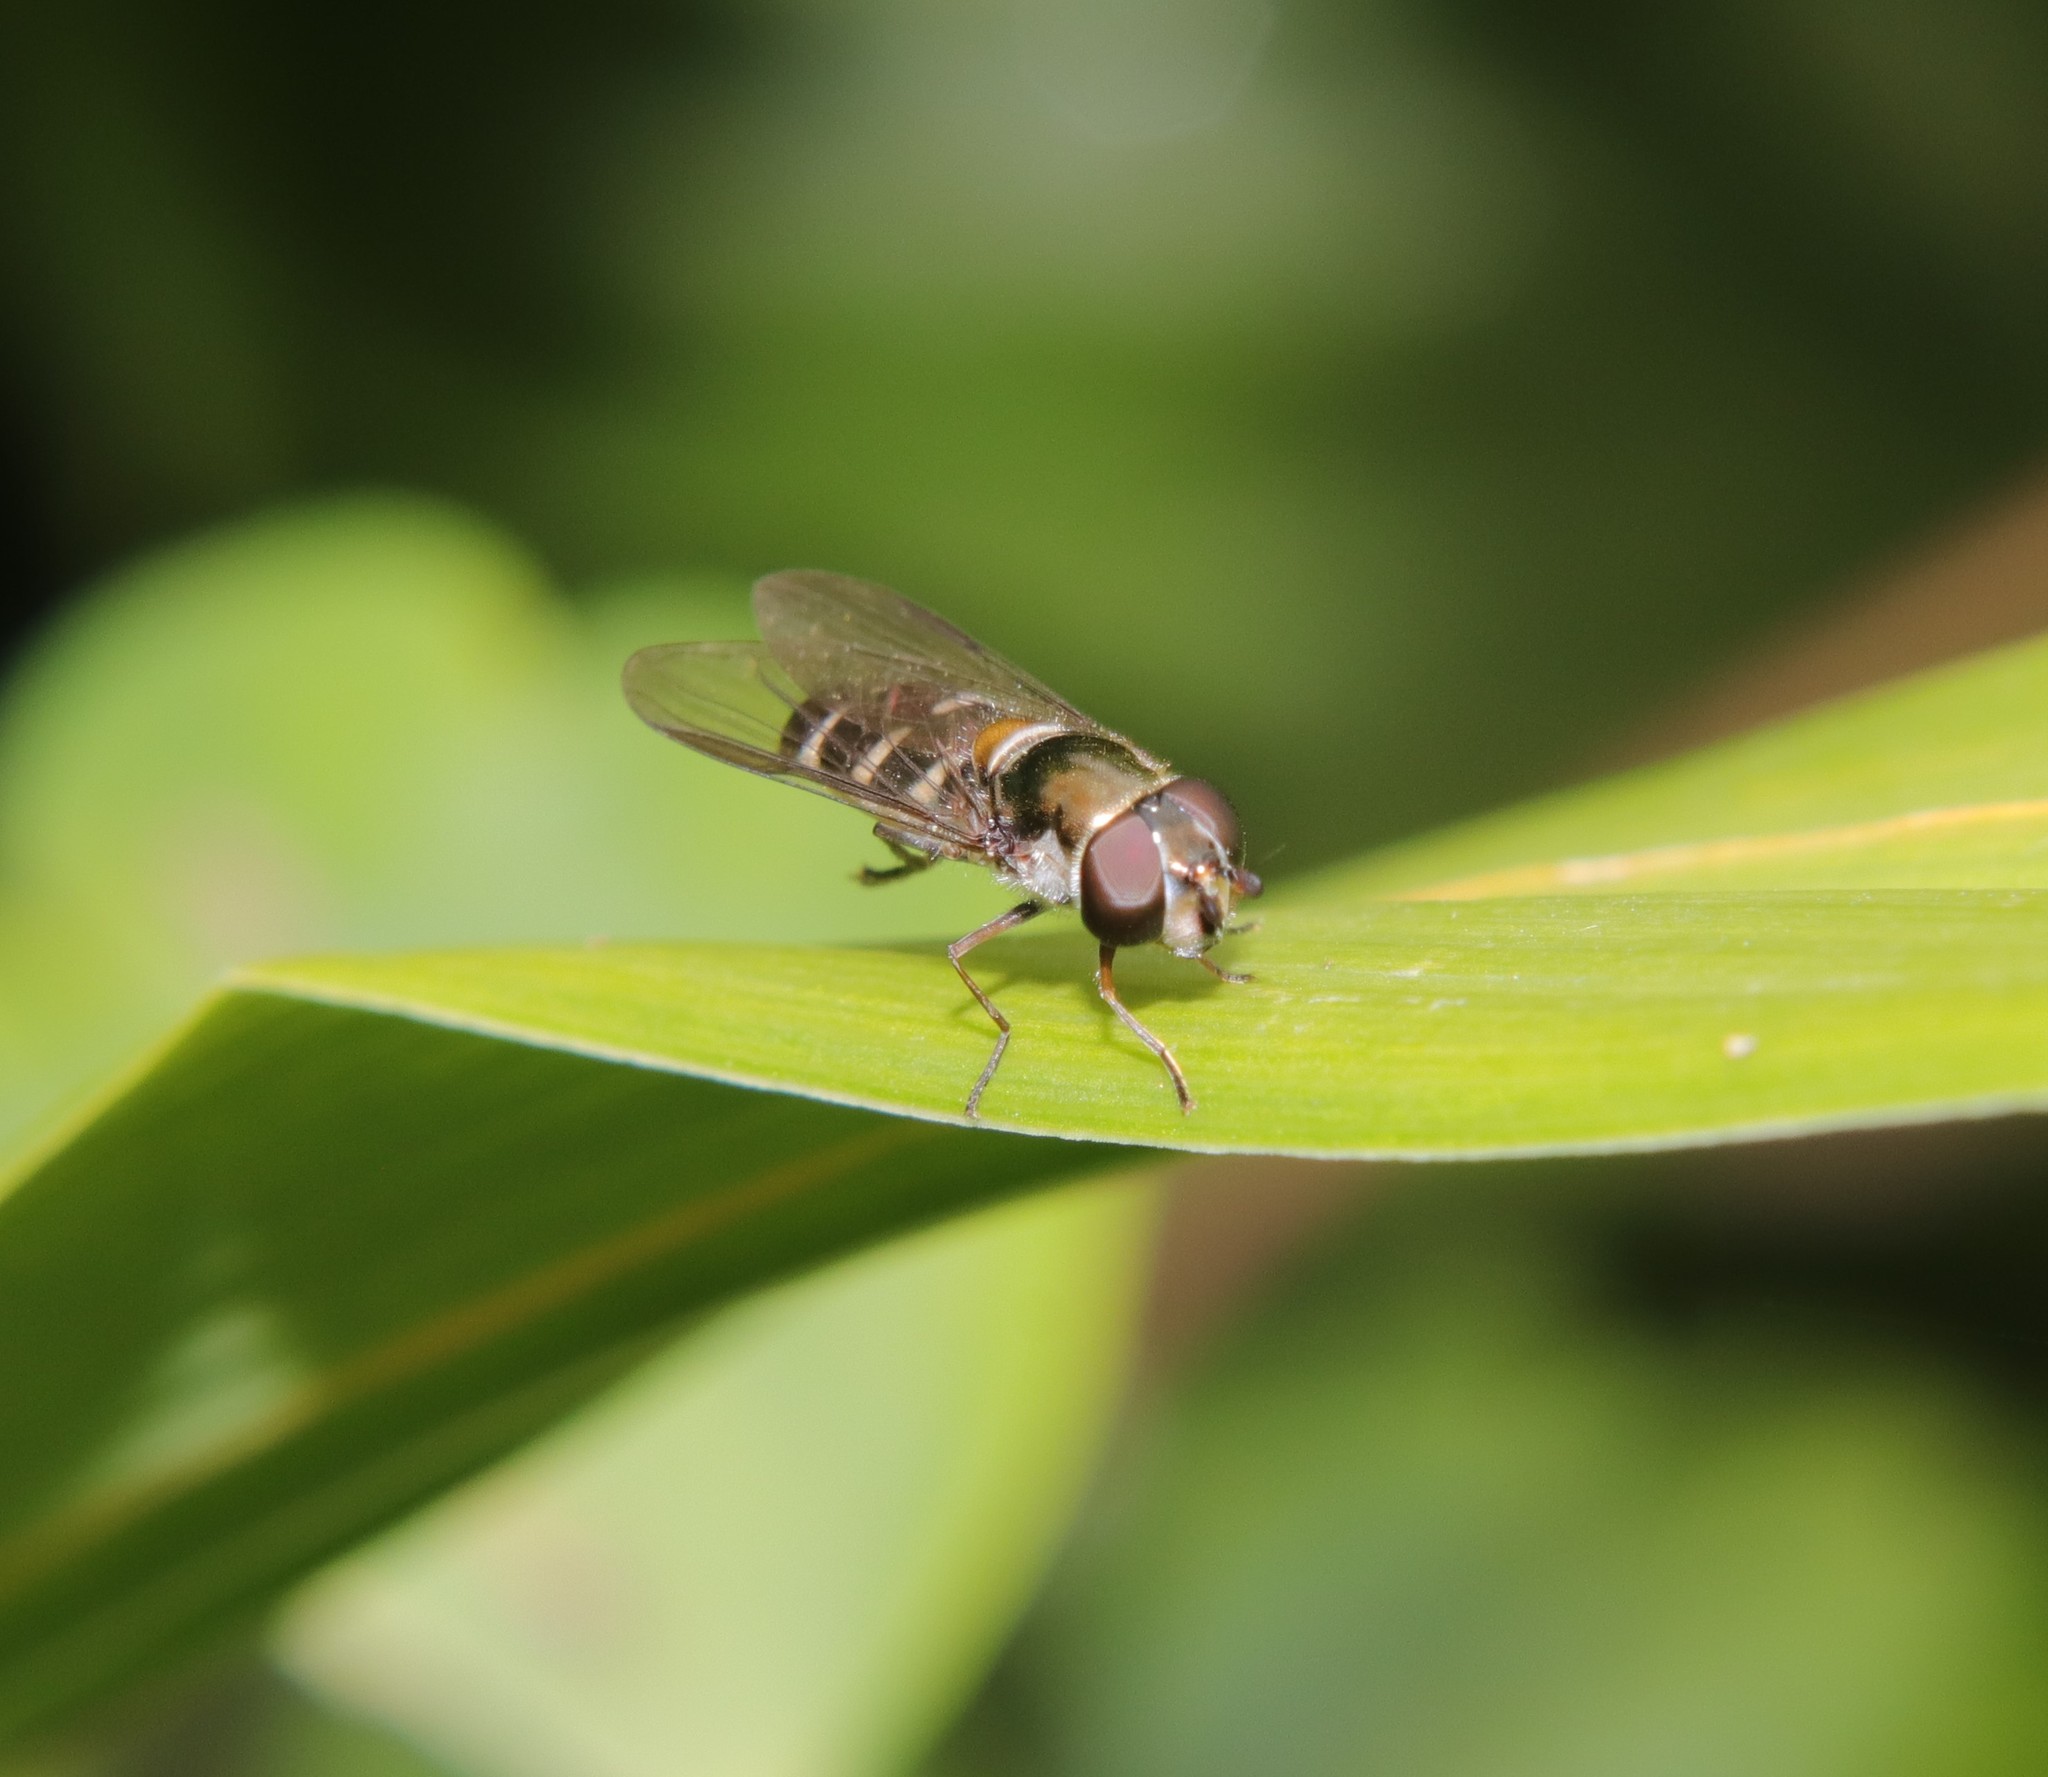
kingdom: Animalia
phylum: Arthropoda
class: Insecta
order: Diptera
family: Syrphidae
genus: Melangyna
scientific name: Melangyna novaezelandiae
